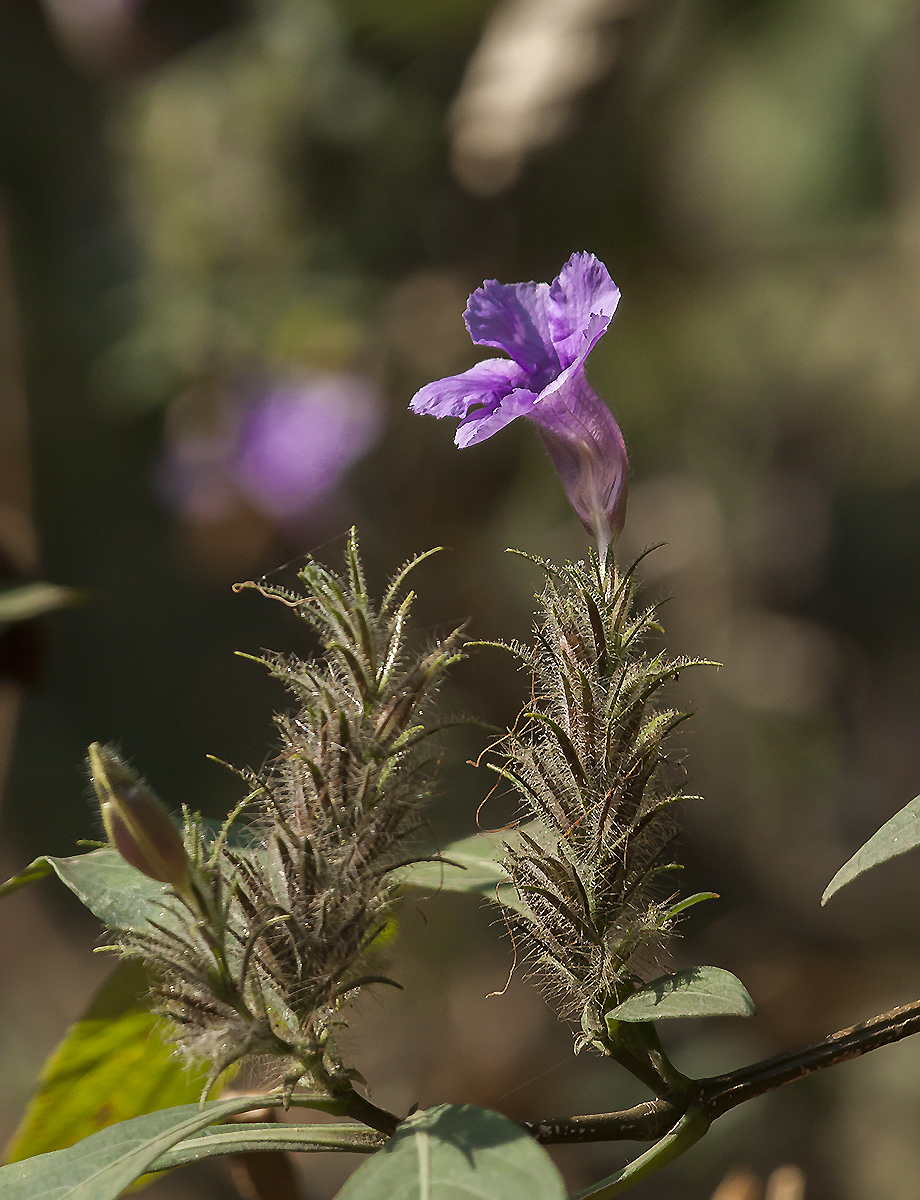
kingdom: Plantae
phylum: Tracheophyta
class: Magnoliopsida
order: Lamiales
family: Acanthaceae
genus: Strobilanthes
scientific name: Strobilanthes integrifolia
